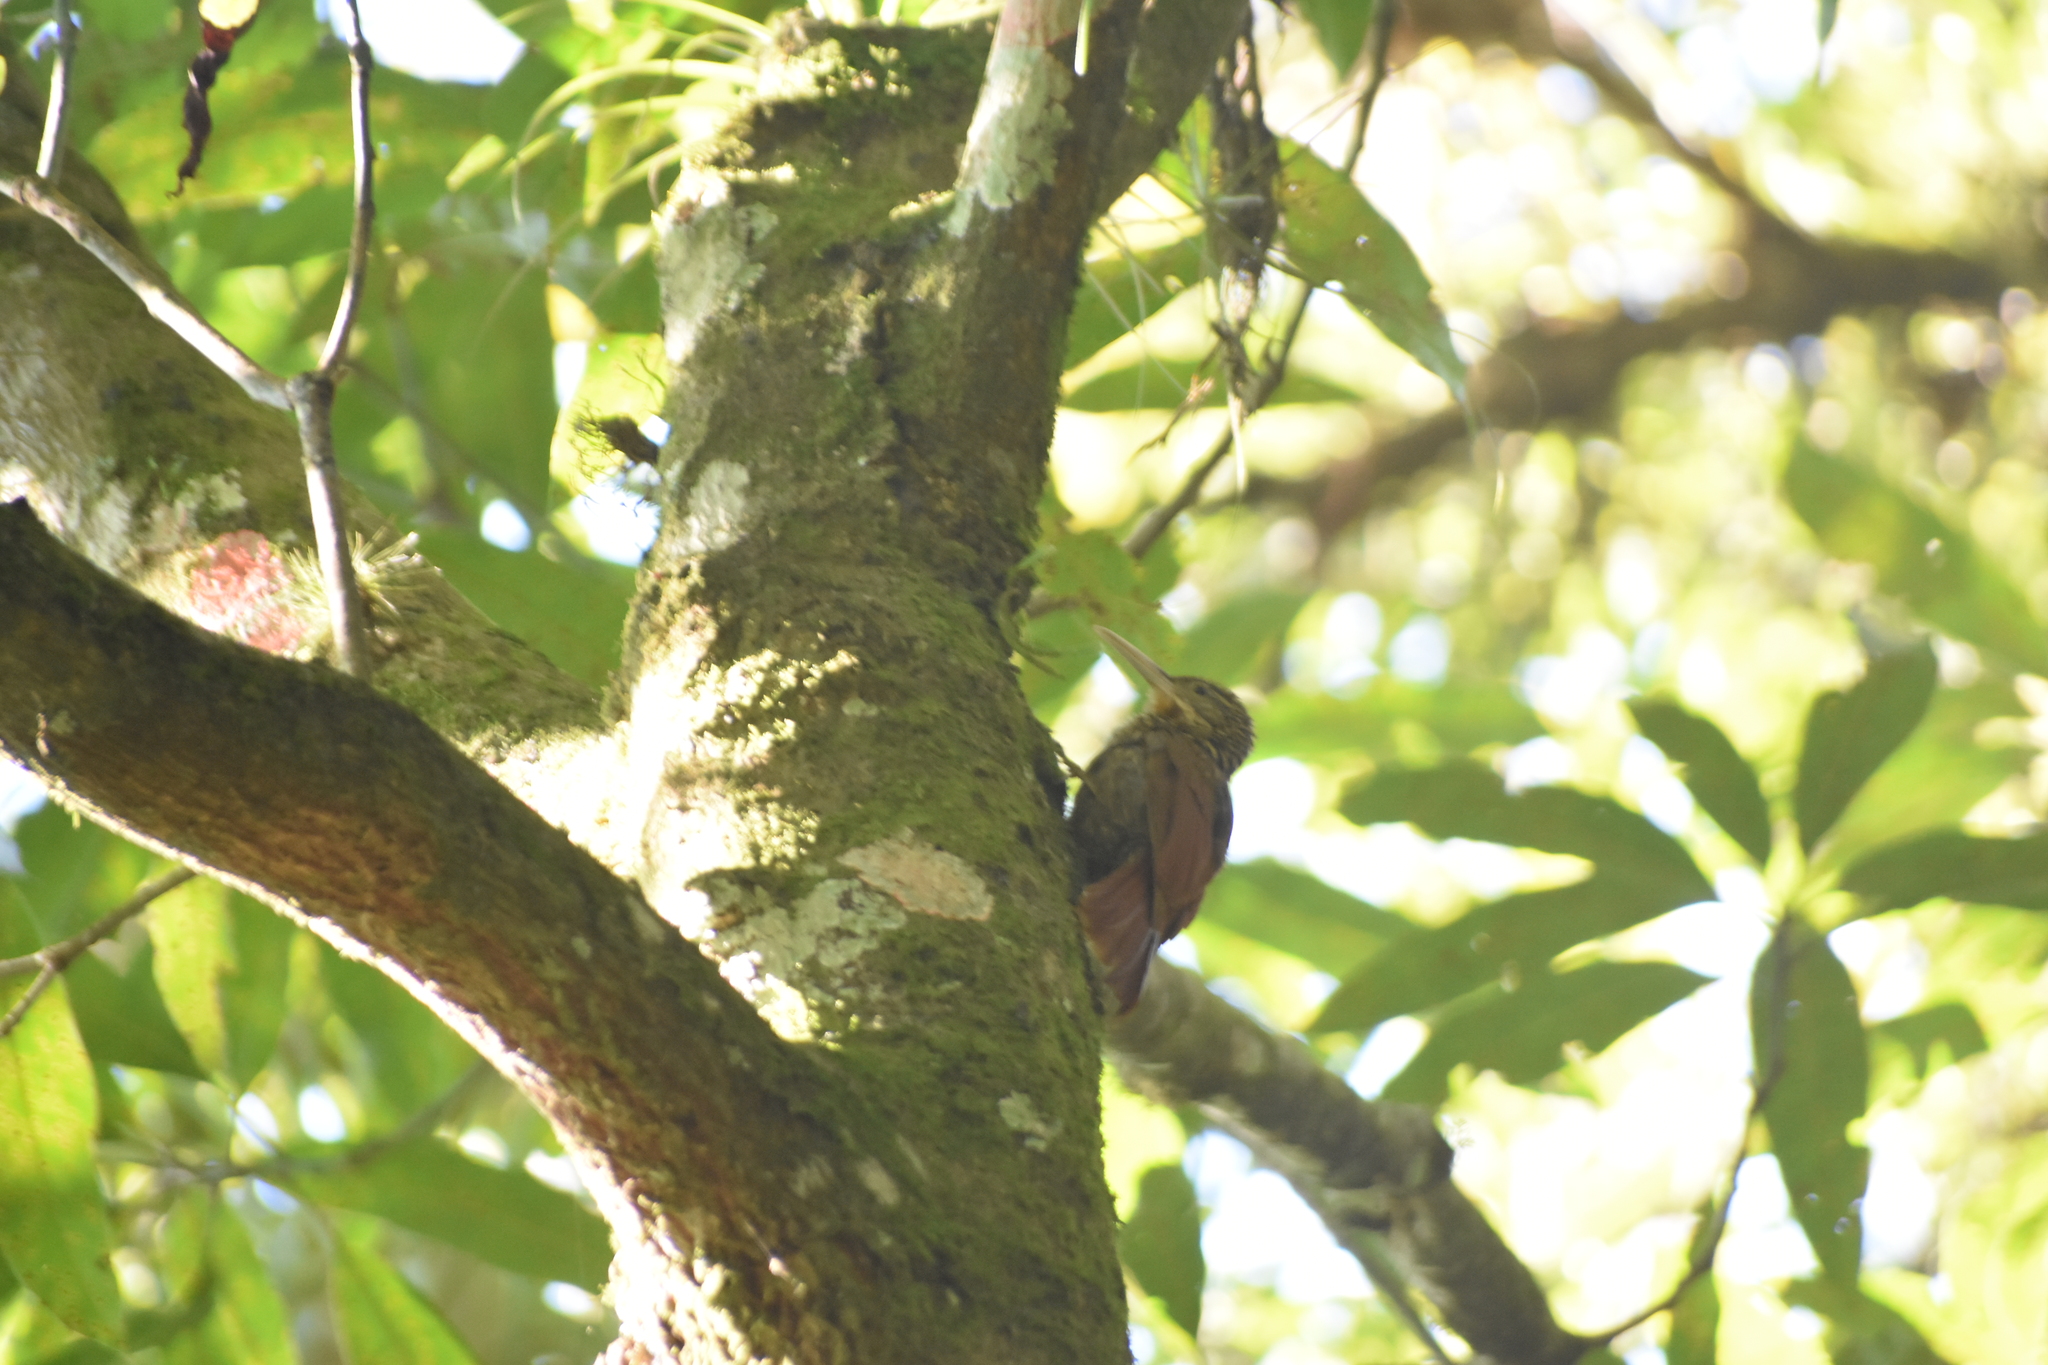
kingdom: Animalia
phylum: Chordata
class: Aves
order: Passeriformes
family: Furnariidae
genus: Xiphorhynchus
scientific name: Xiphorhynchus flavigaster
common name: Ivory-billed woodcreeper
